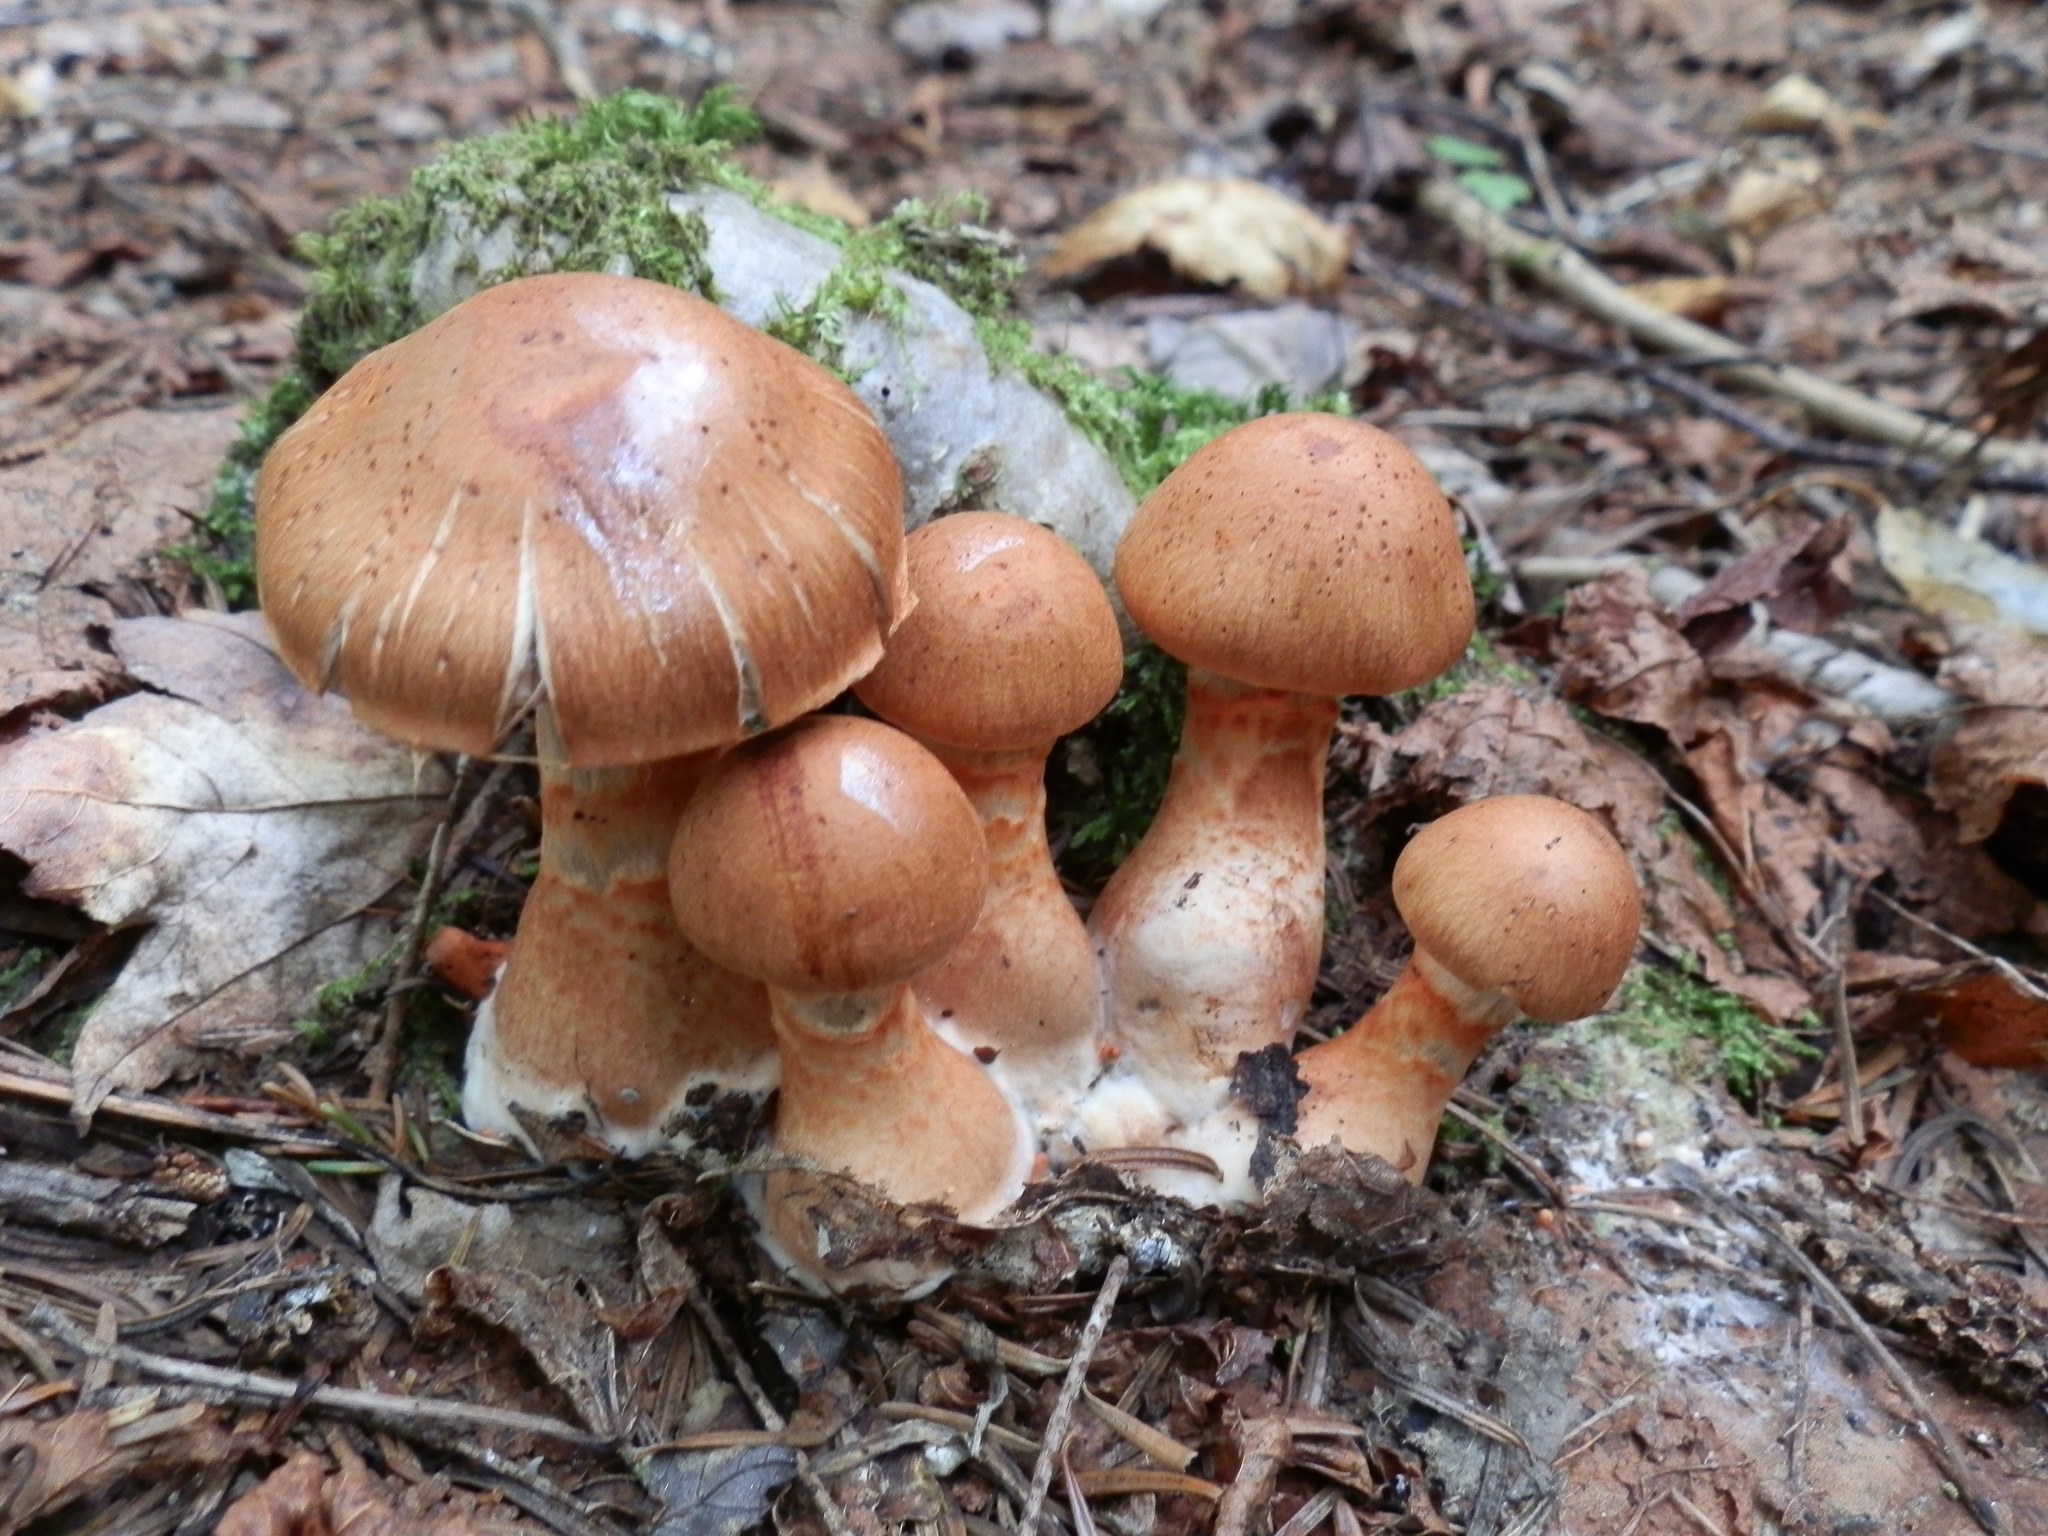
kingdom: Fungi
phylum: Basidiomycota
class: Agaricomycetes
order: Agaricales
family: Cortinariaceae
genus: Cortinarius
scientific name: Cortinarius armillatus
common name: Red banded webcap
